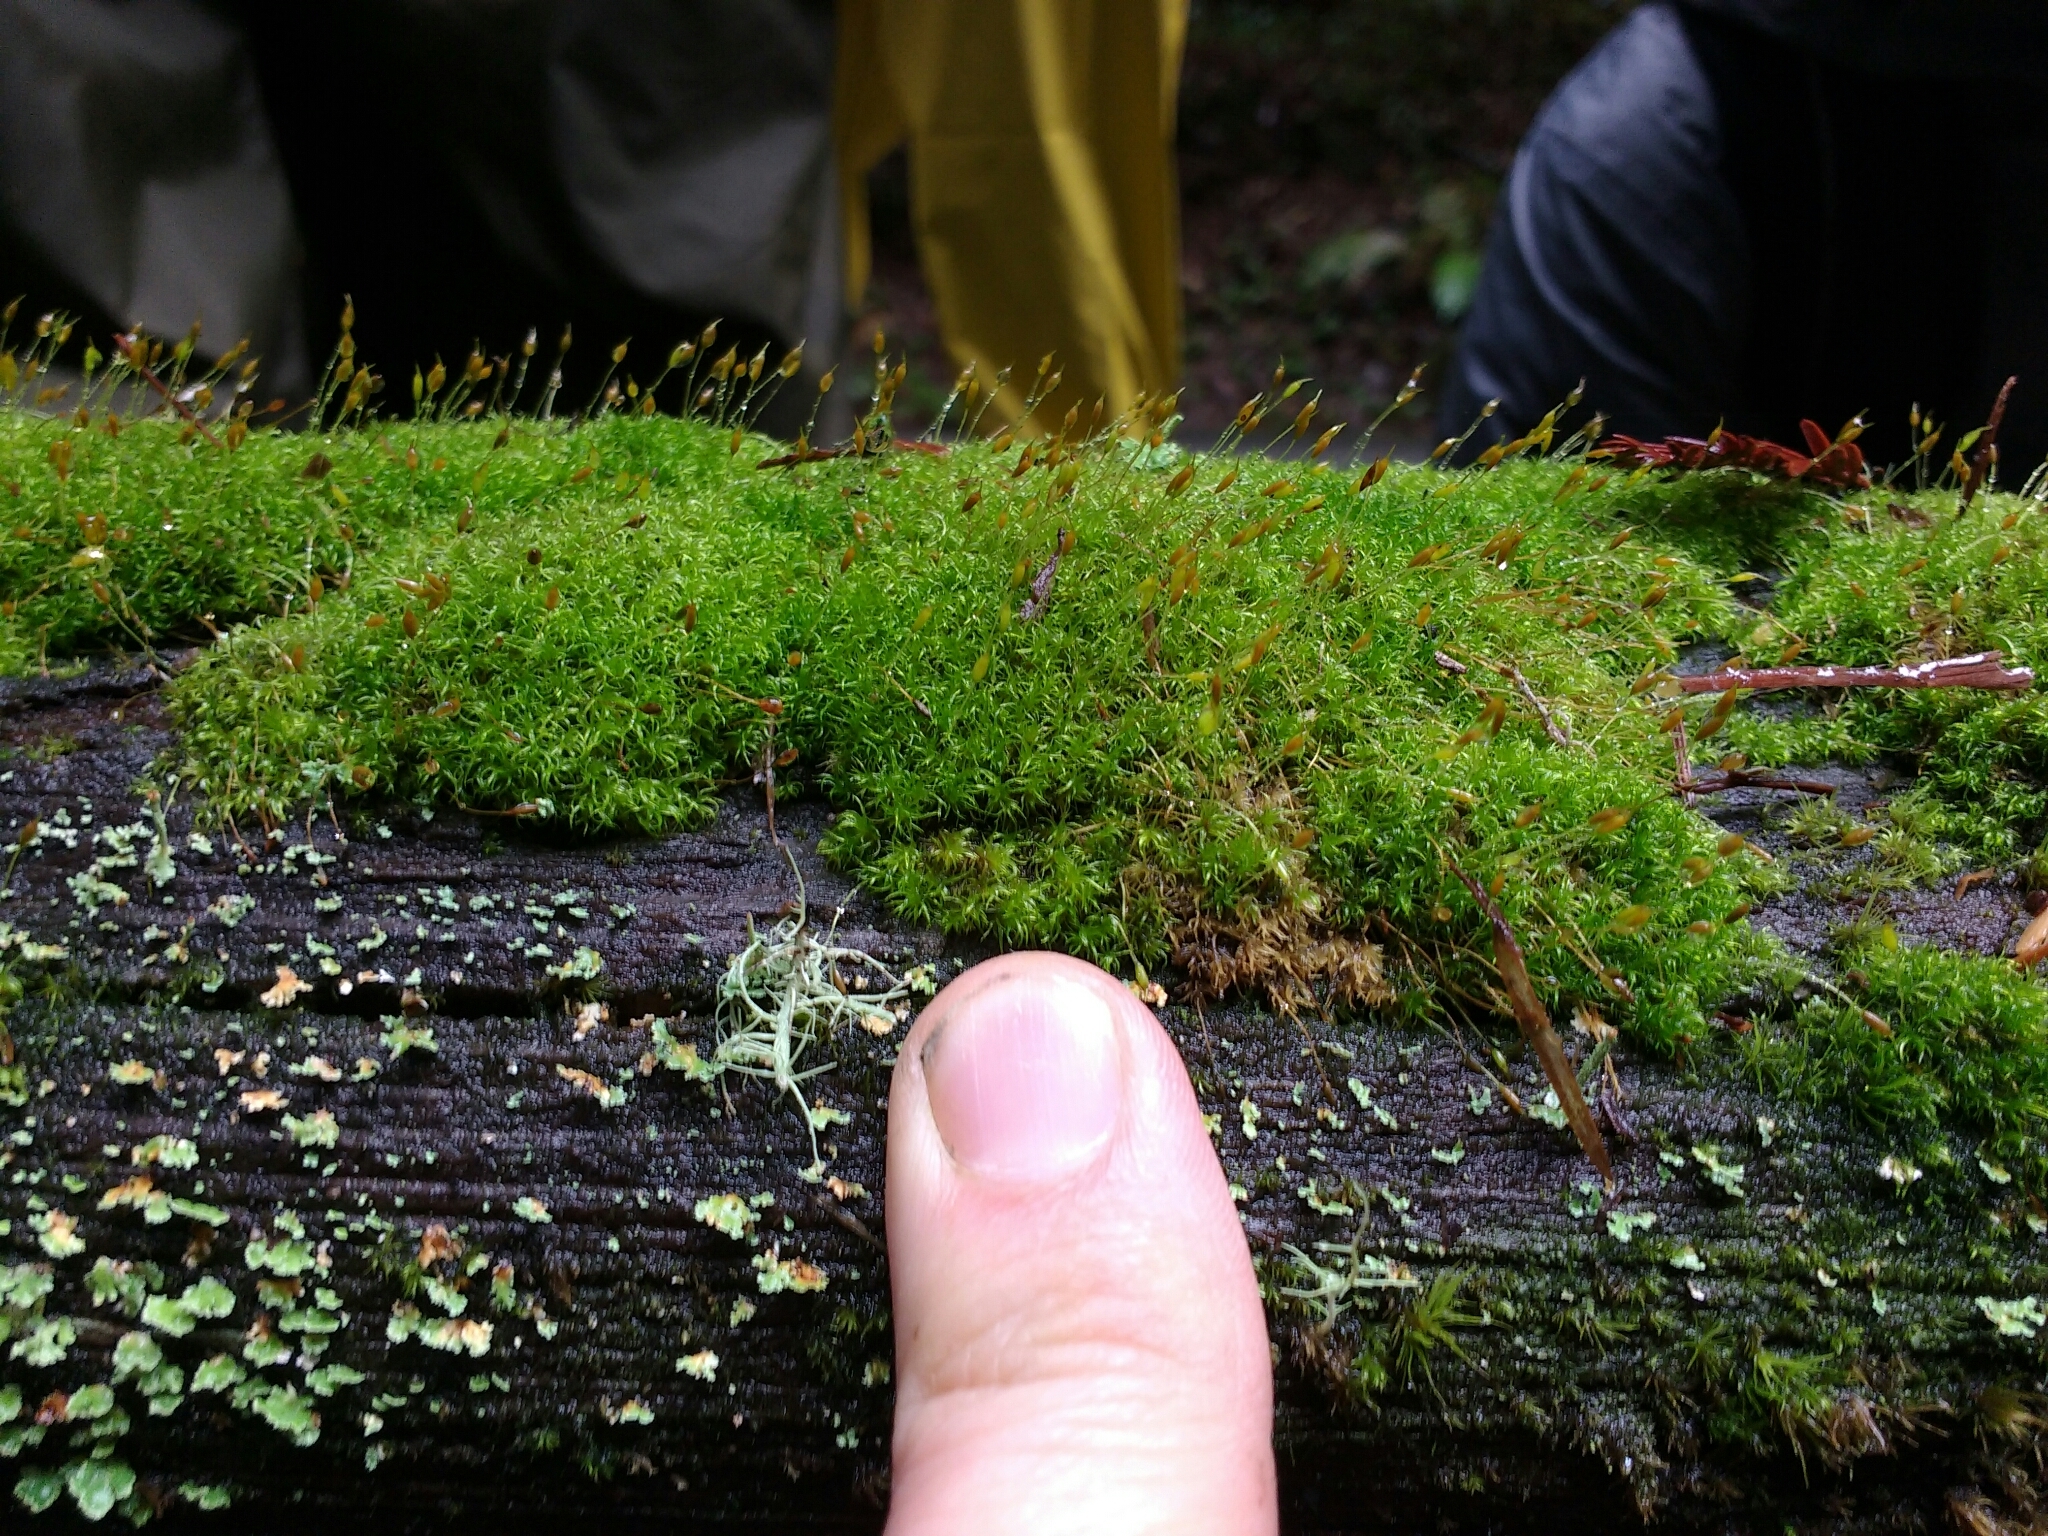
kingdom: Plantae
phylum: Bryophyta
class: Bryopsida
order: Dicranales
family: Rhabdoweisiaceae
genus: Dicranoweisia
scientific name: Dicranoweisia cirrata
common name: Common pincushion
